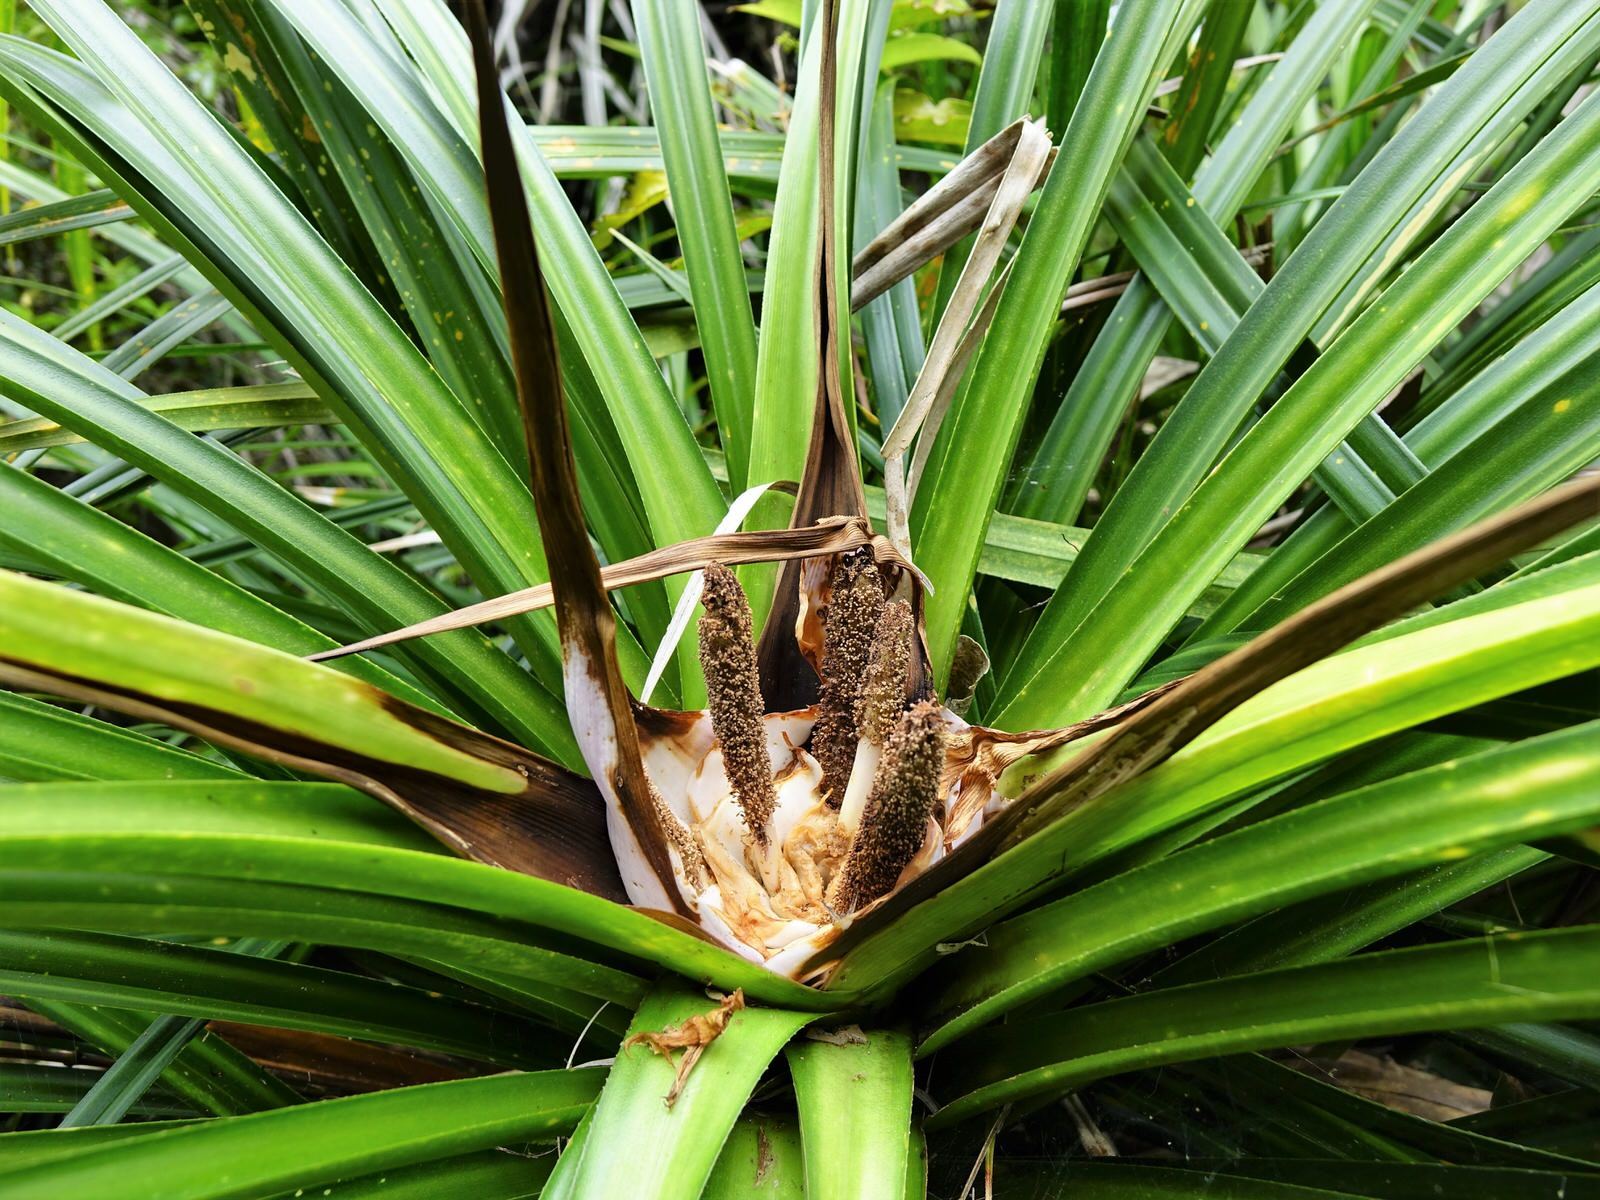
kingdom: Plantae
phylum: Tracheophyta
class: Liliopsida
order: Pandanales
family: Pandanaceae
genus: Freycinetia
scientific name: Freycinetia banksii
